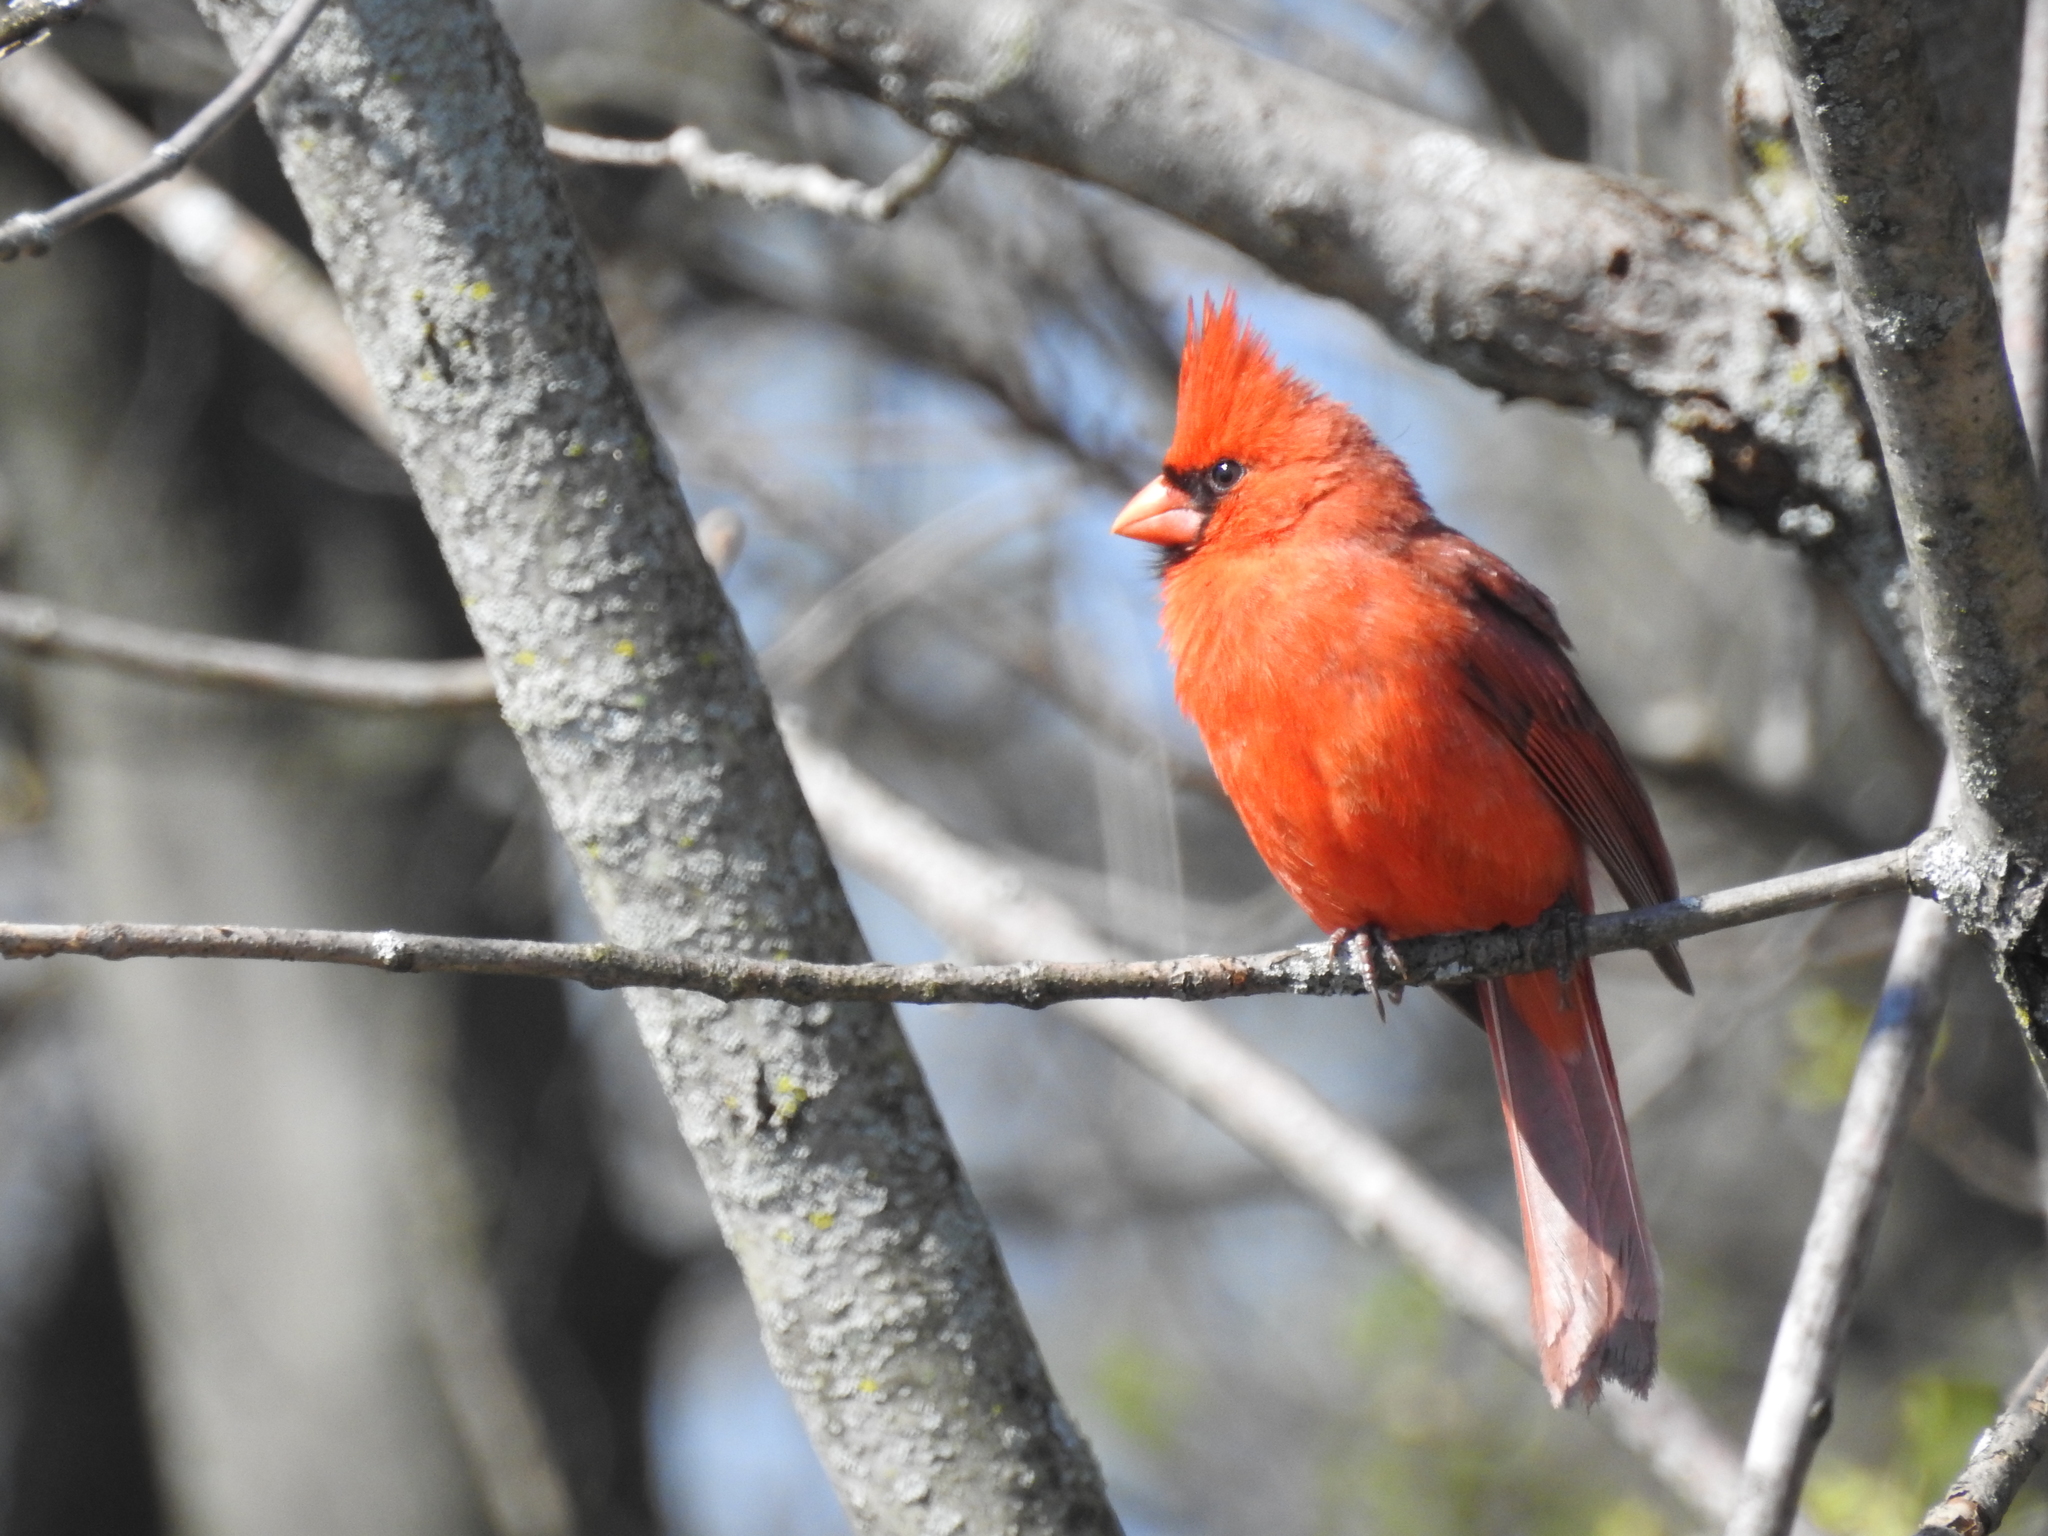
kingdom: Animalia
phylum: Chordata
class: Aves
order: Passeriformes
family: Cardinalidae
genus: Cardinalis
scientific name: Cardinalis cardinalis
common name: Northern cardinal
